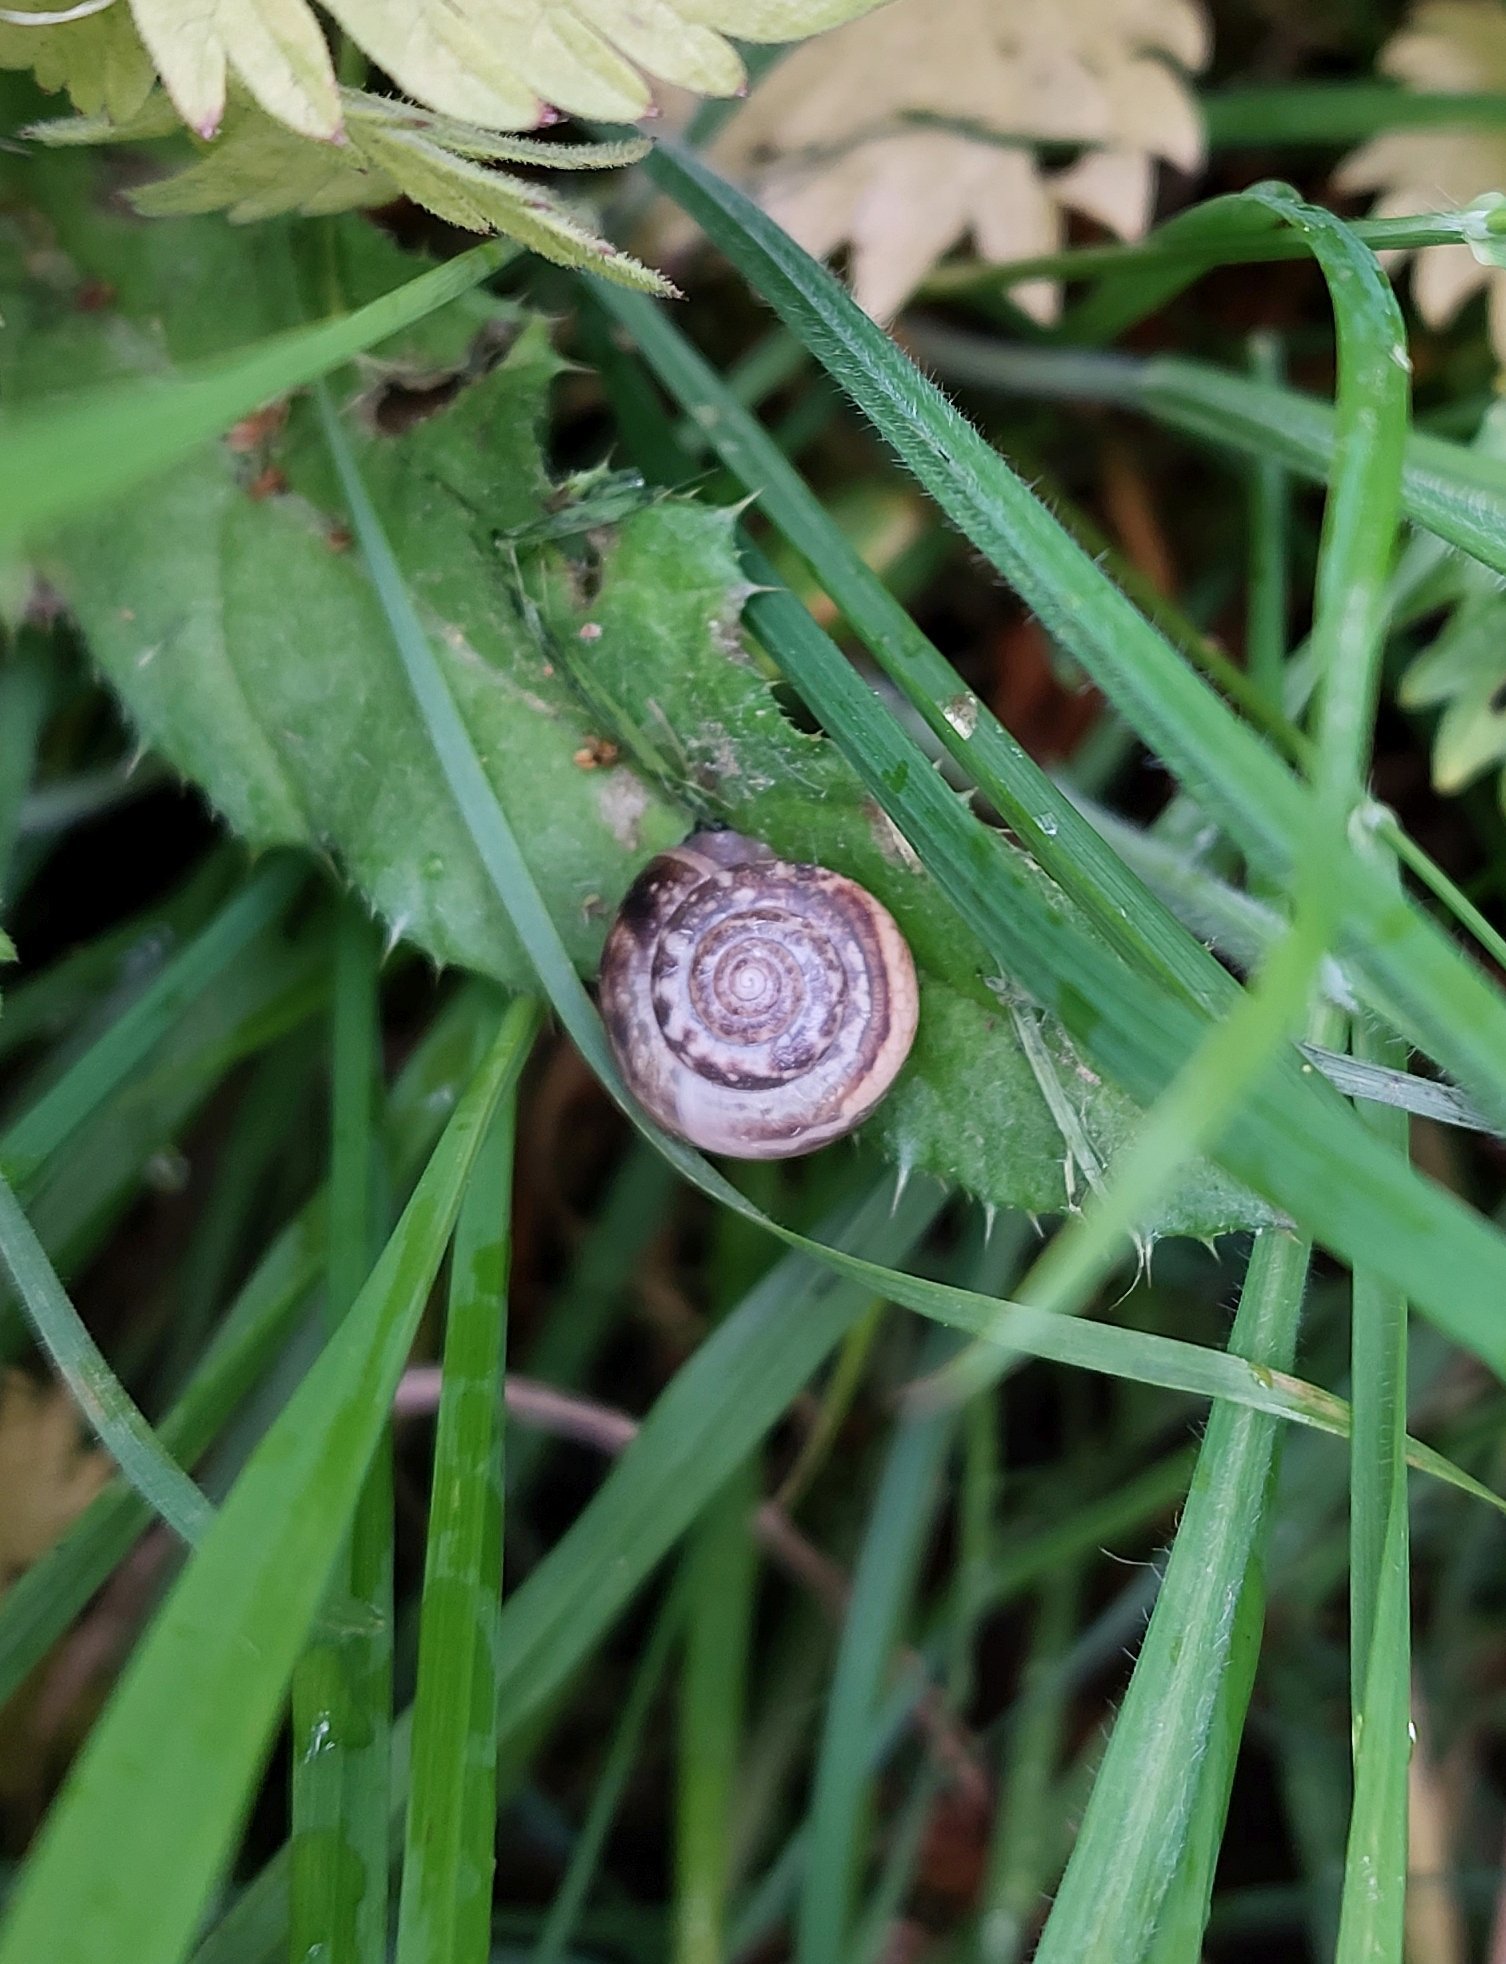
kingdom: Animalia
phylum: Mollusca
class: Gastropoda
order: Stylommatophora
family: Hygromiidae
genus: Monacha
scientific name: Monacha cantiana
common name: Kentish snail
